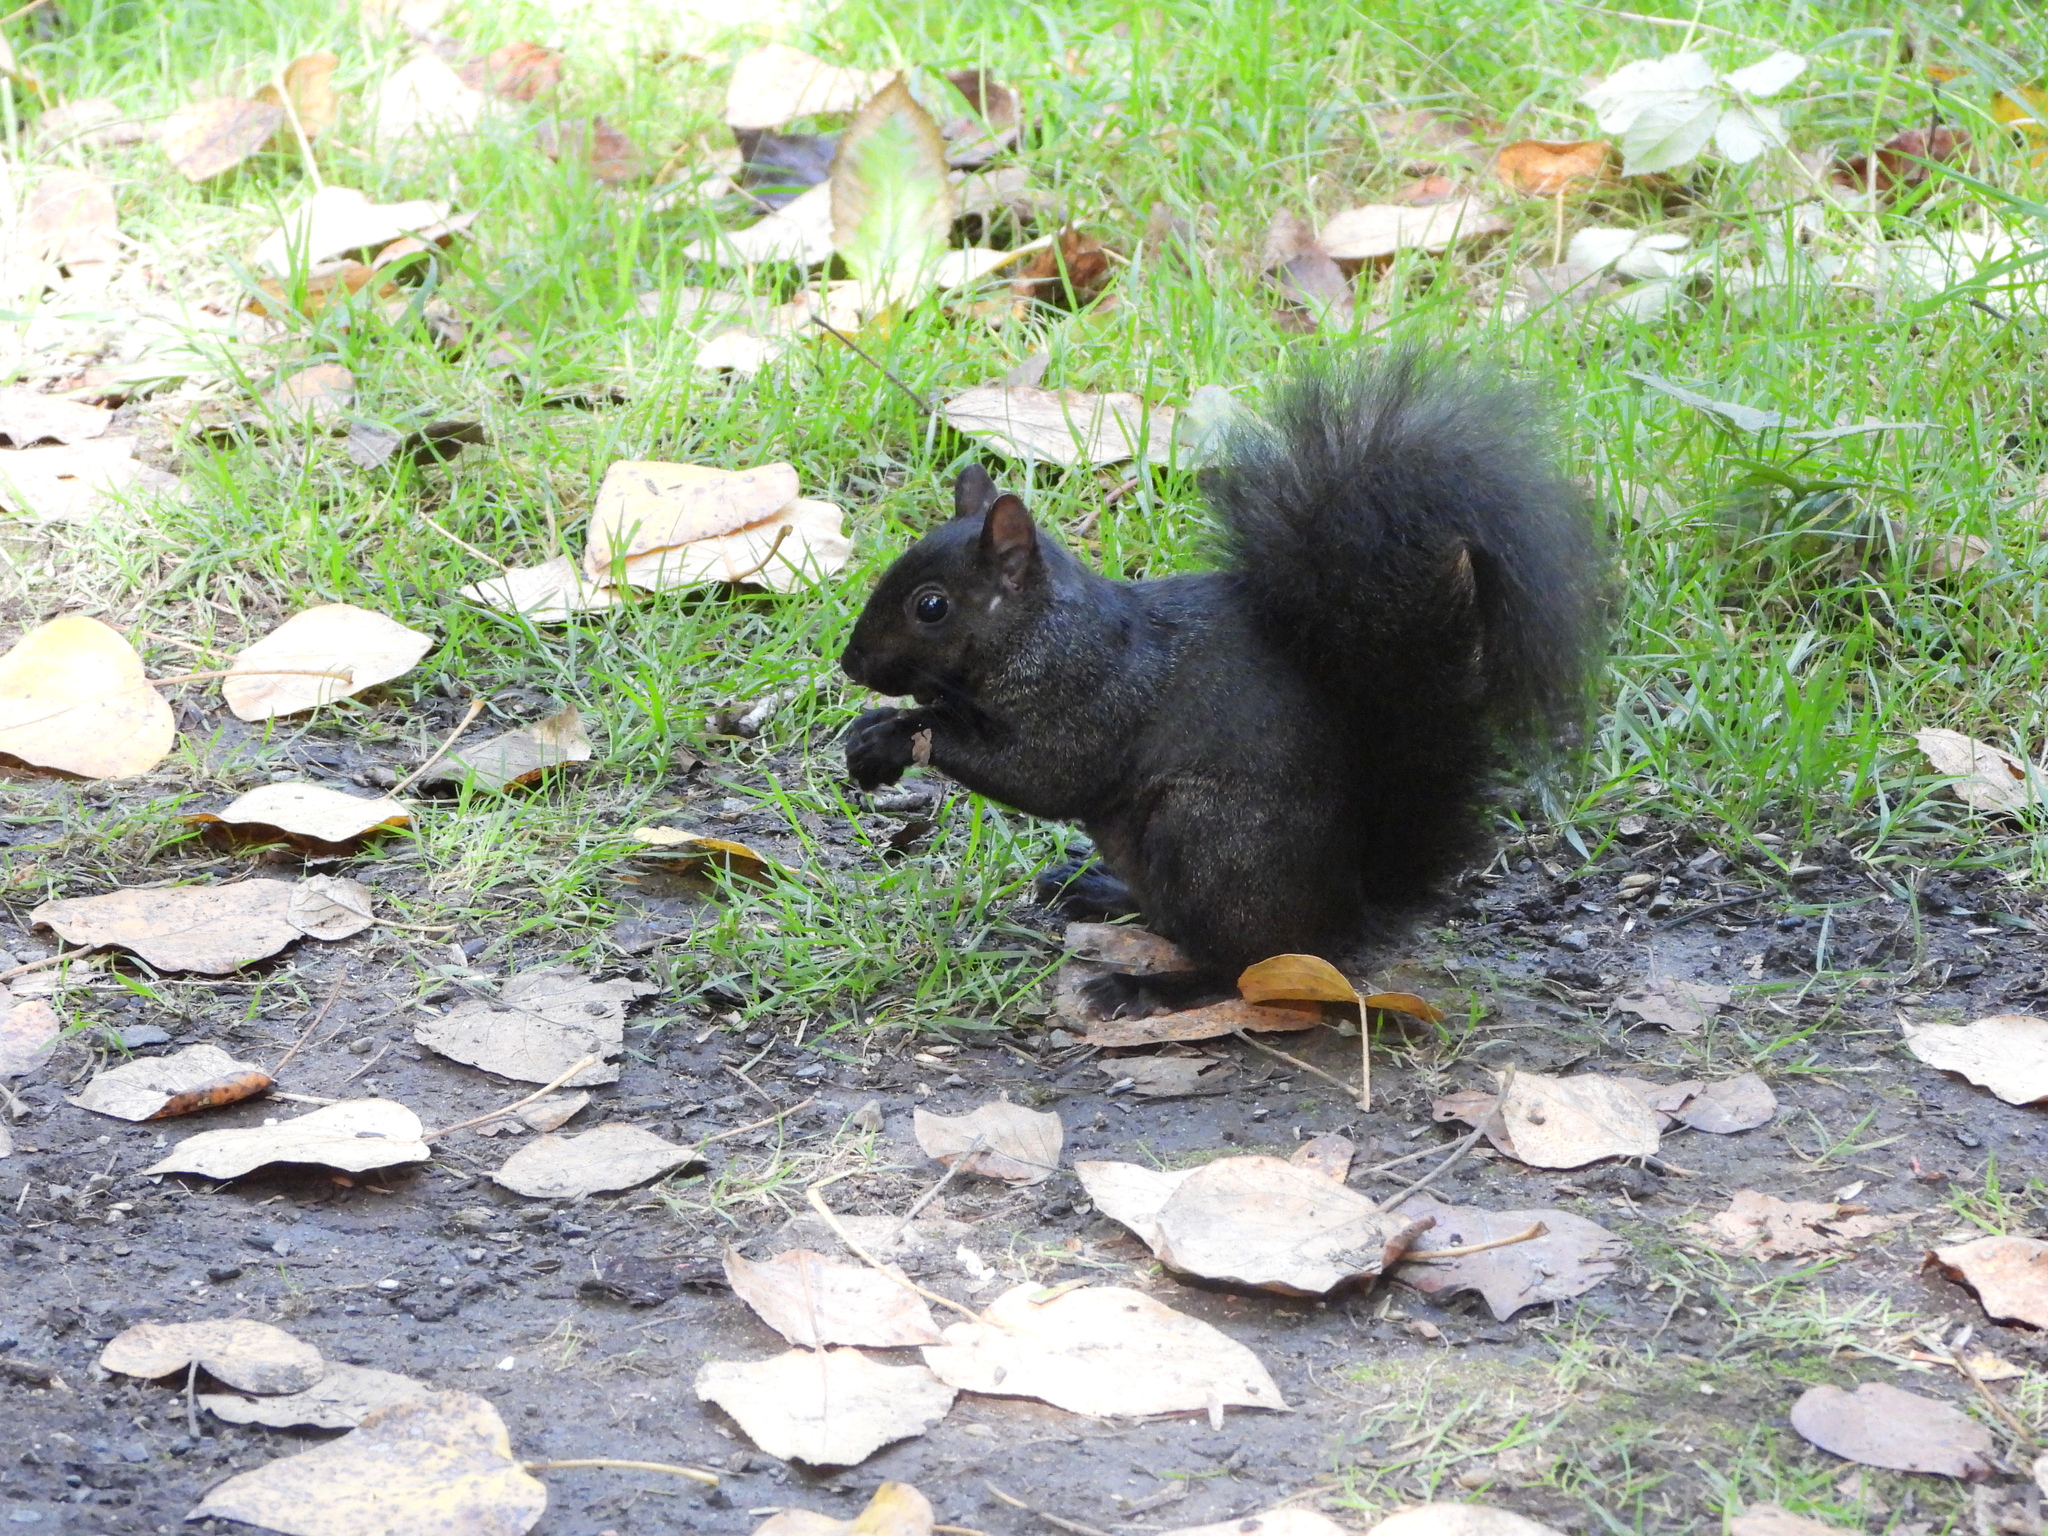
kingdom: Animalia
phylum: Chordata
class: Mammalia
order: Rodentia
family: Sciuridae
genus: Sciurus
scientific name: Sciurus carolinensis
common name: Eastern gray squirrel
